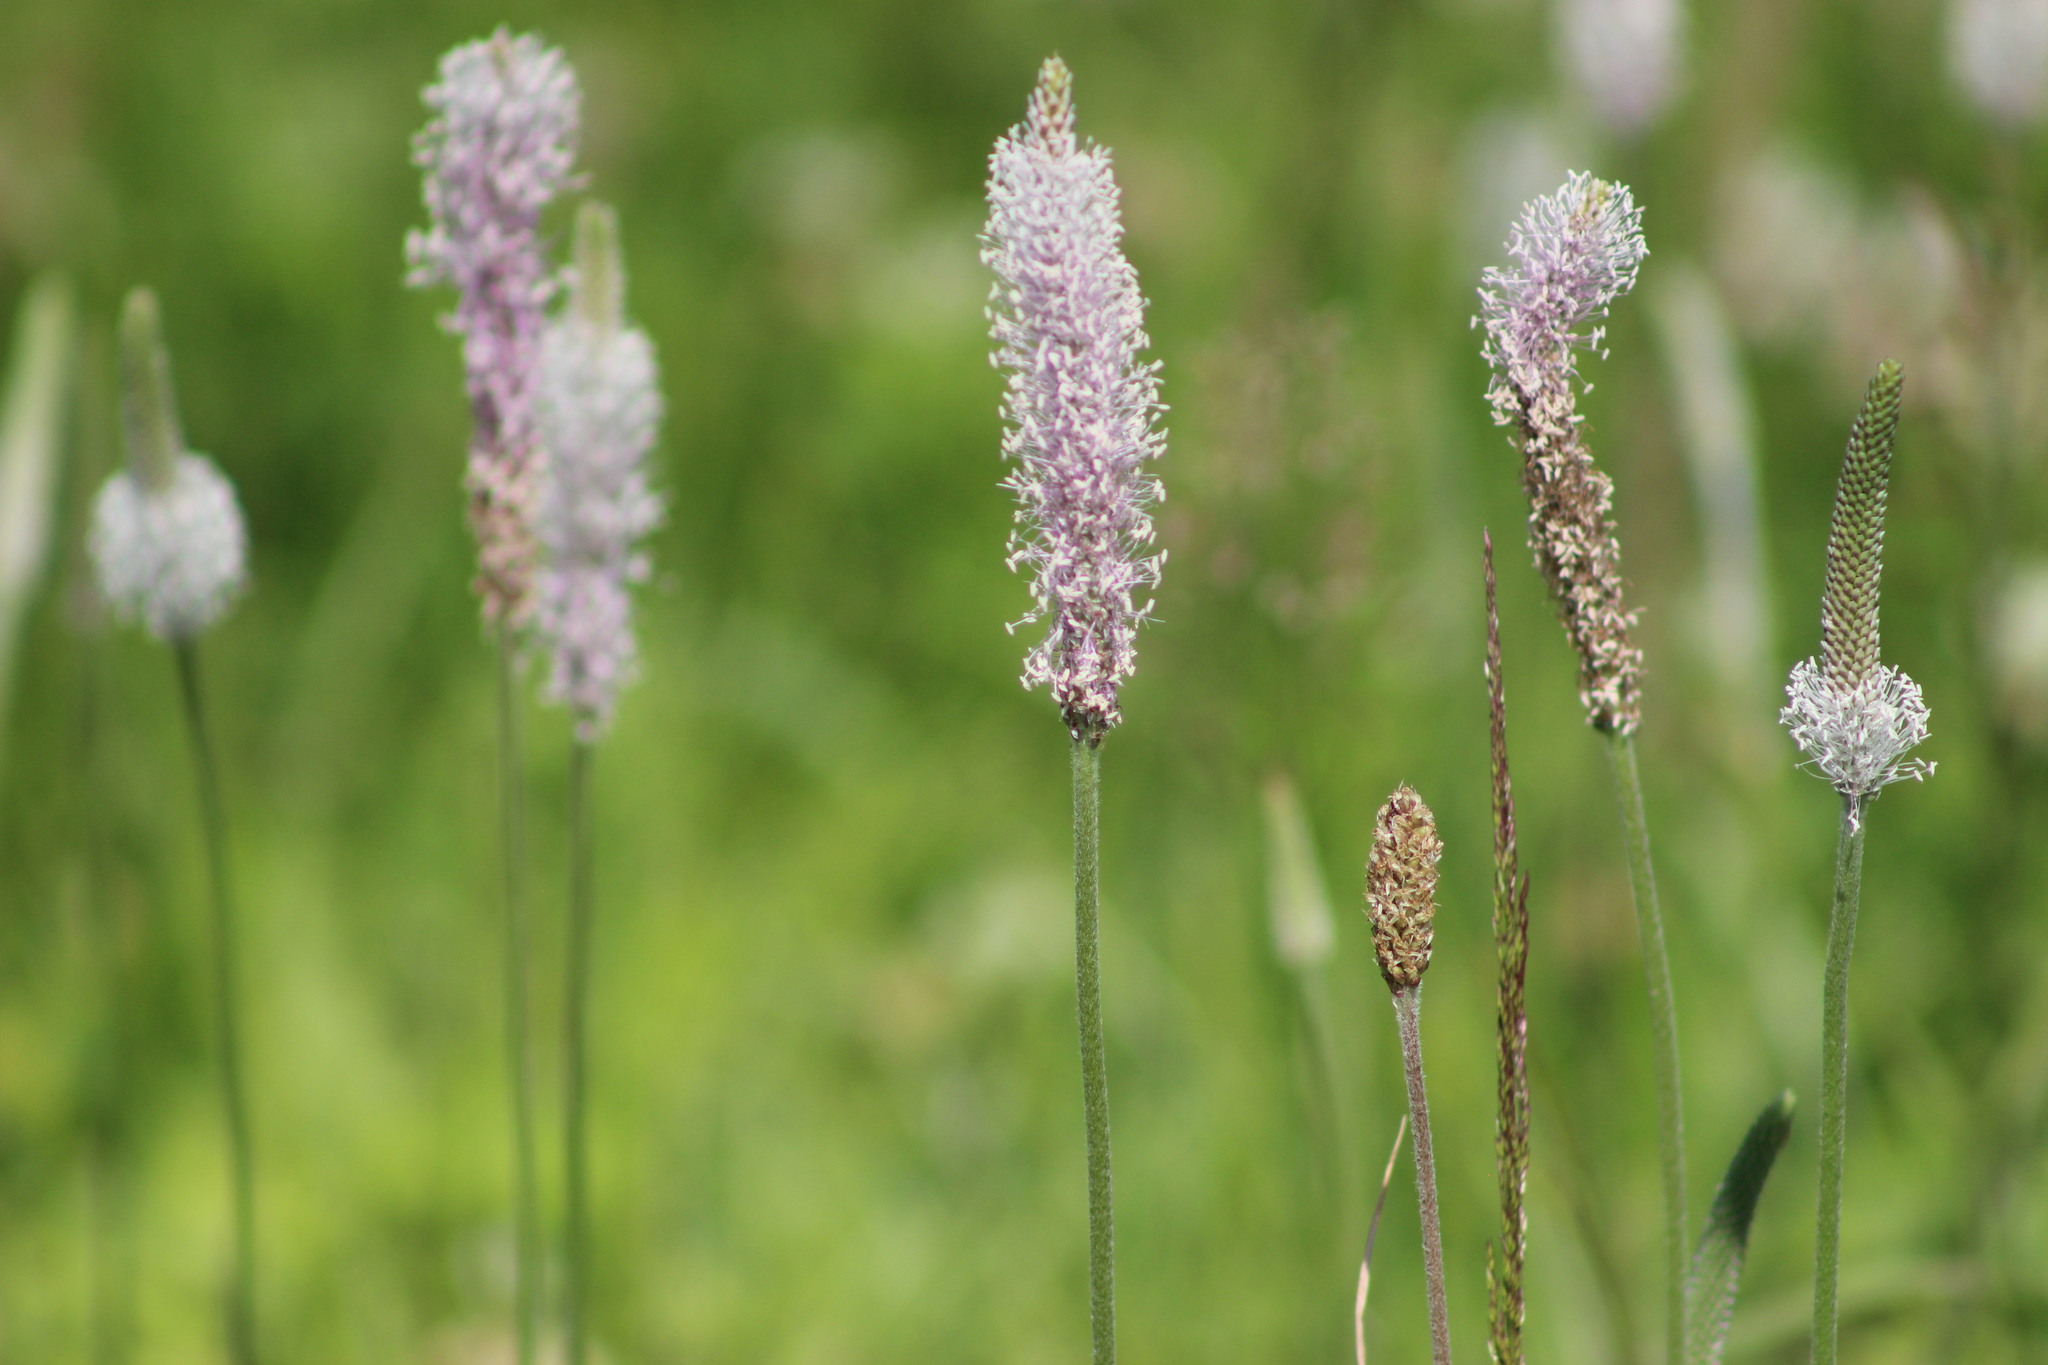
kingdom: Plantae
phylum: Tracheophyta
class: Magnoliopsida
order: Lamiales
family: Plantaginaceae
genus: Plantago
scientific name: Plantago media
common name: Hoary plantain
